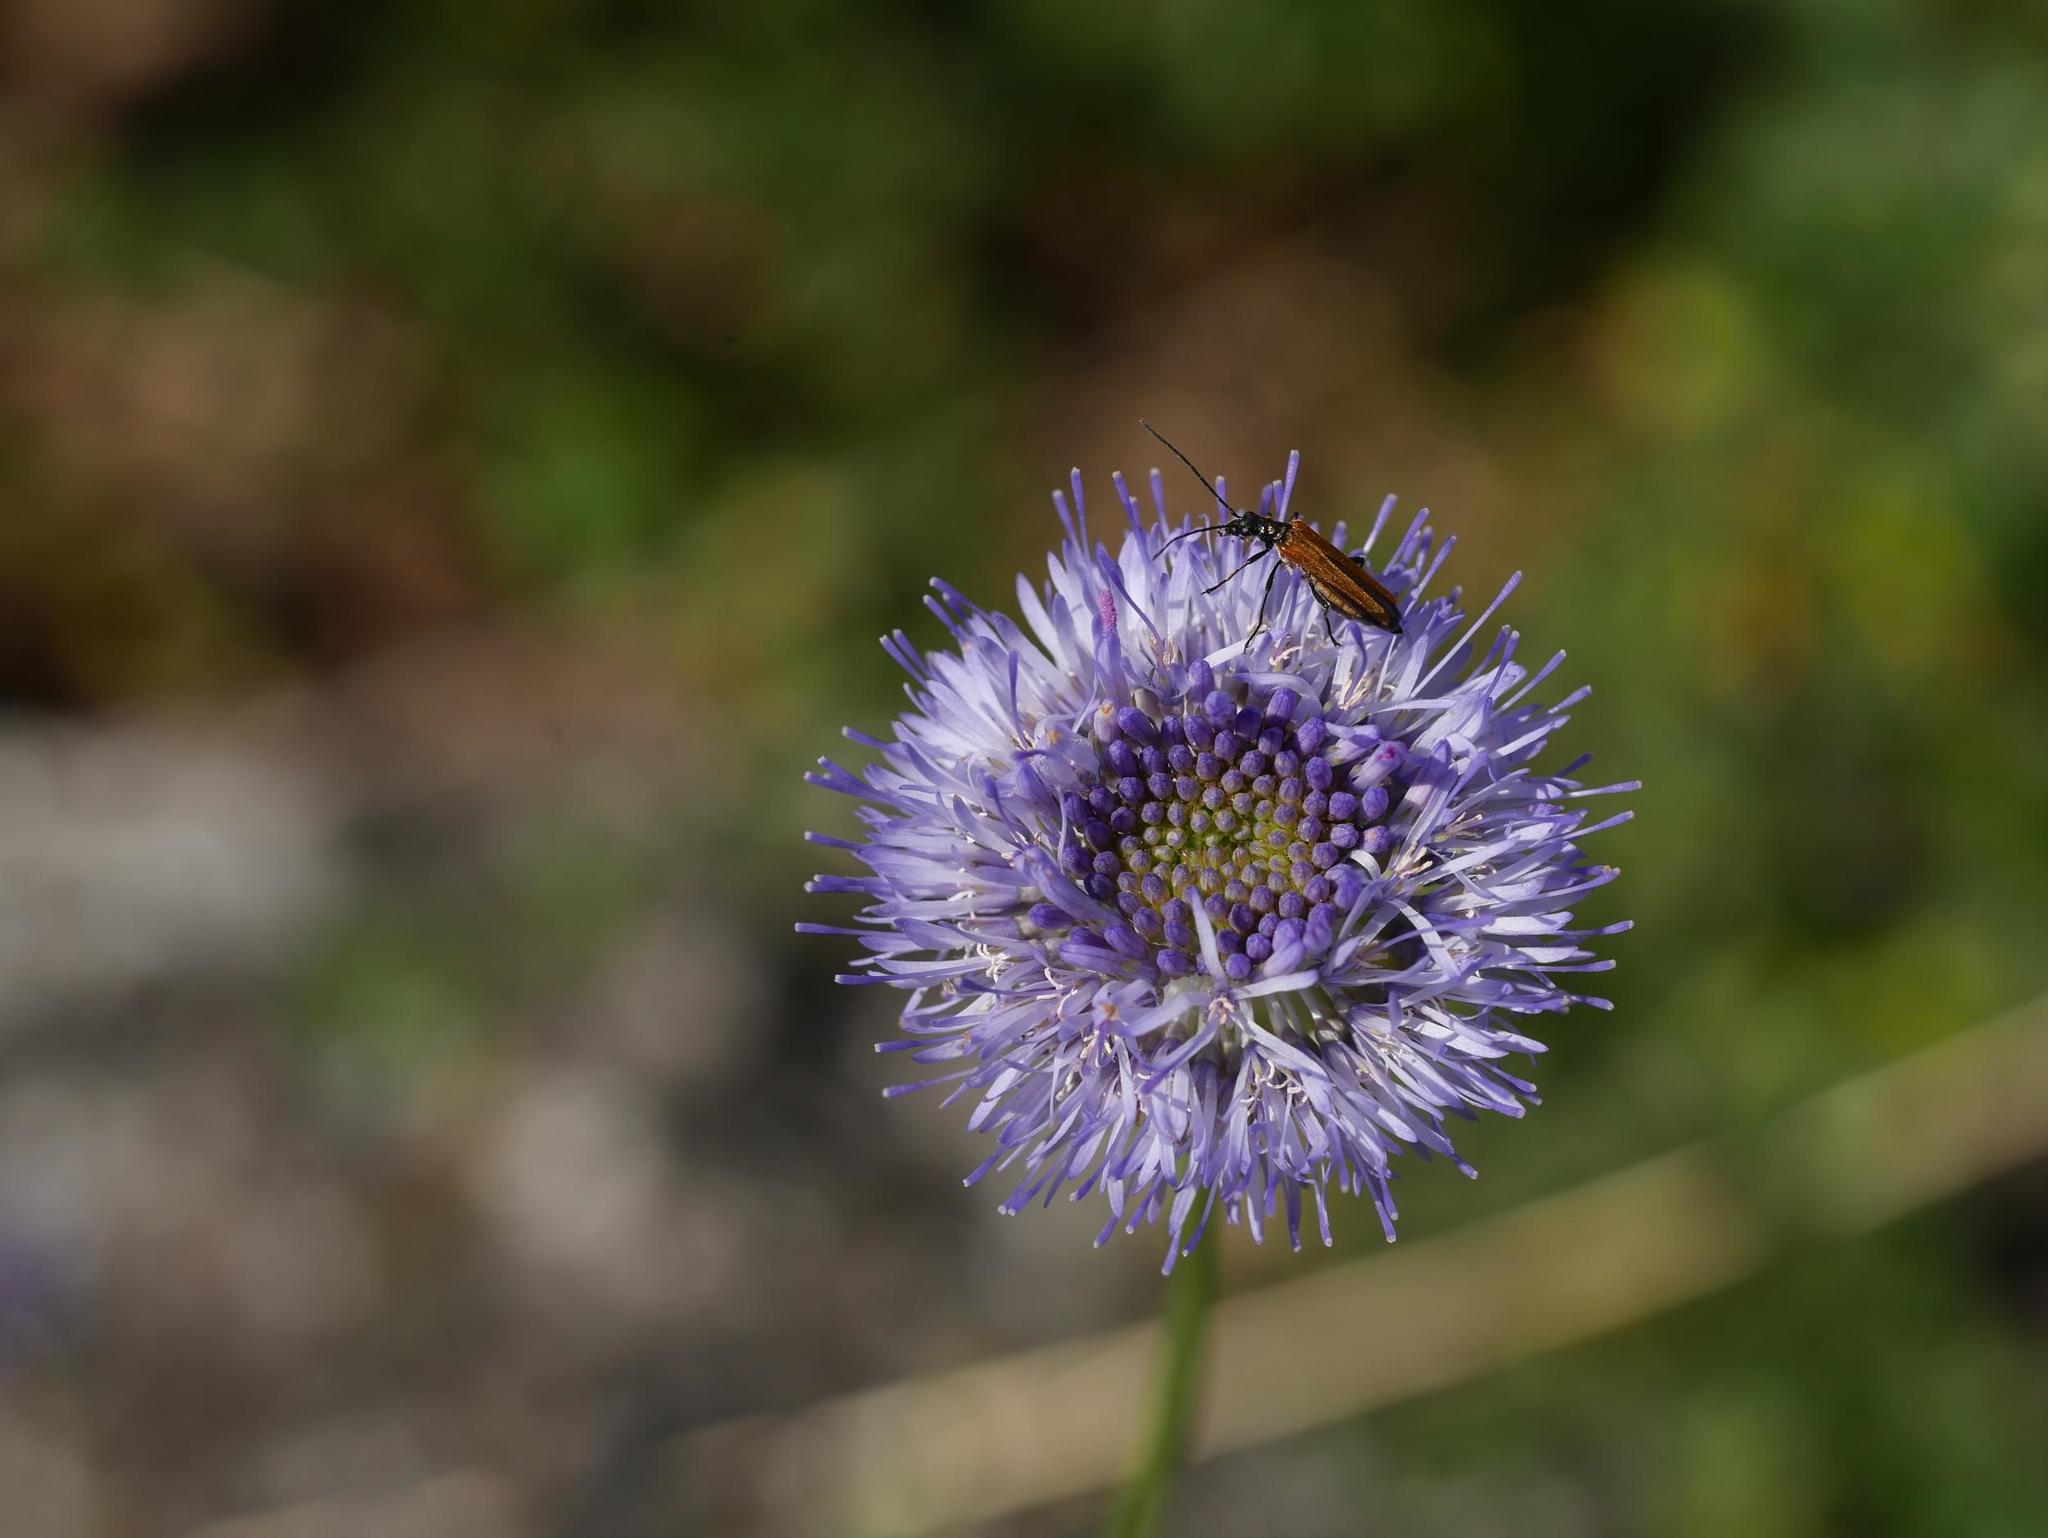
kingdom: Plantae
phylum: Tracheophyta
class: Magnoliopsida
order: Asterales
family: Campanulaceae
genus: Jasione
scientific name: Jasione montana
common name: Sheep's-bit
